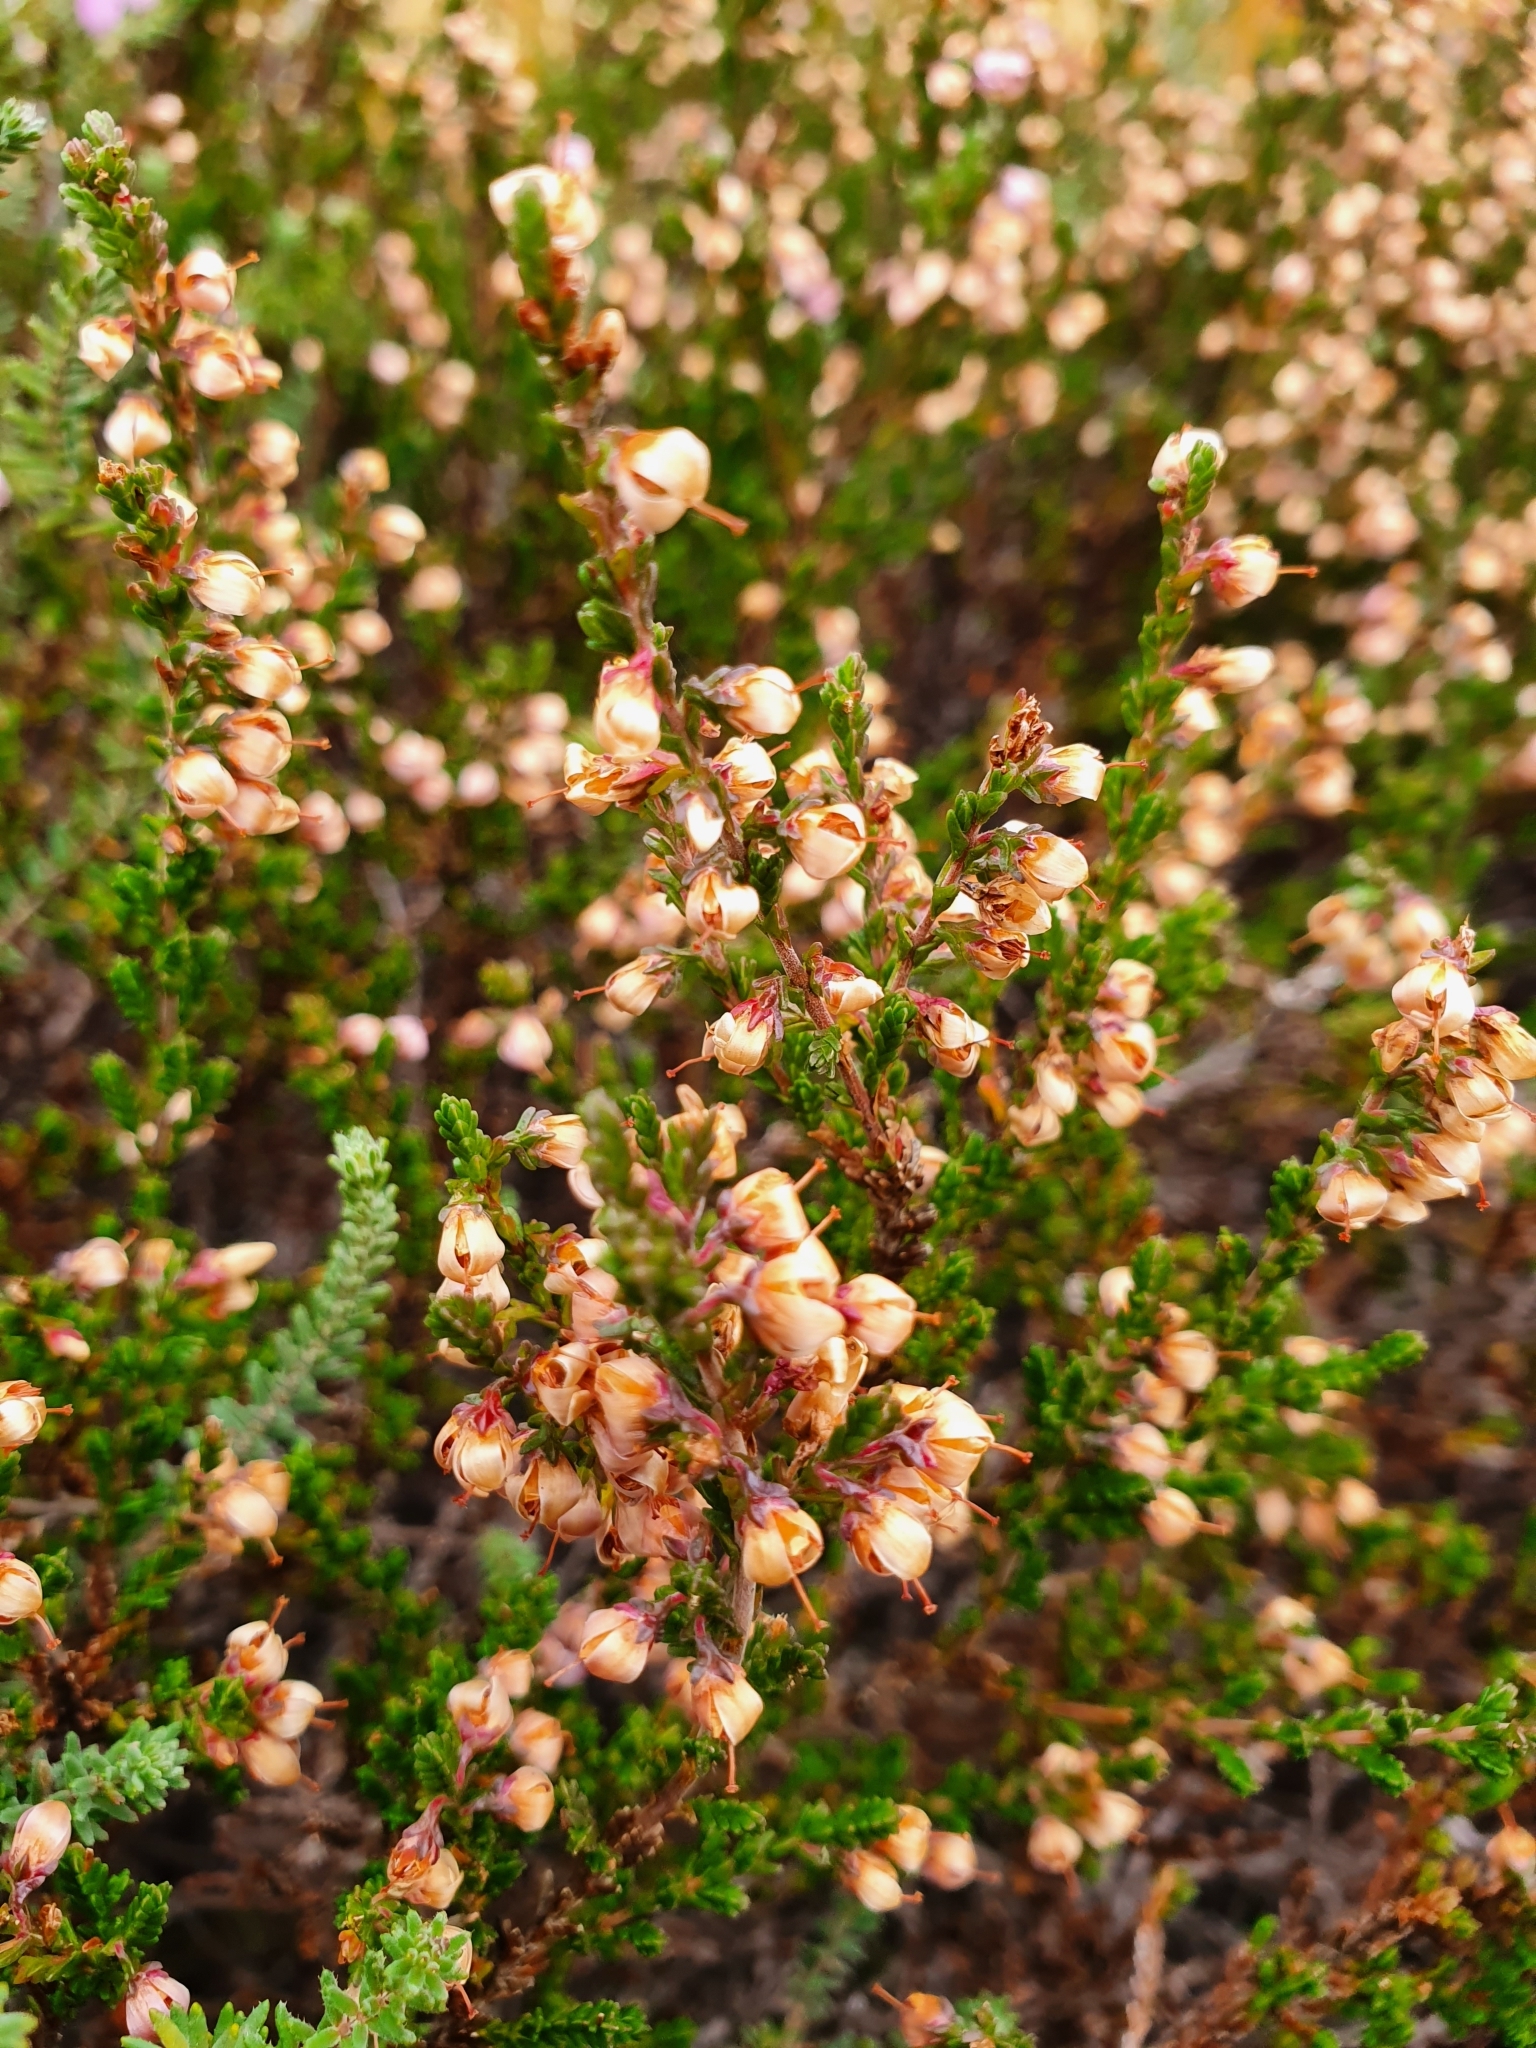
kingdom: Plantae
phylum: Tracheophyta
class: Magnoliopsida
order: Ericales
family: Ericaceae
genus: Calluna
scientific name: Calluna vulgaris
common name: Heather
